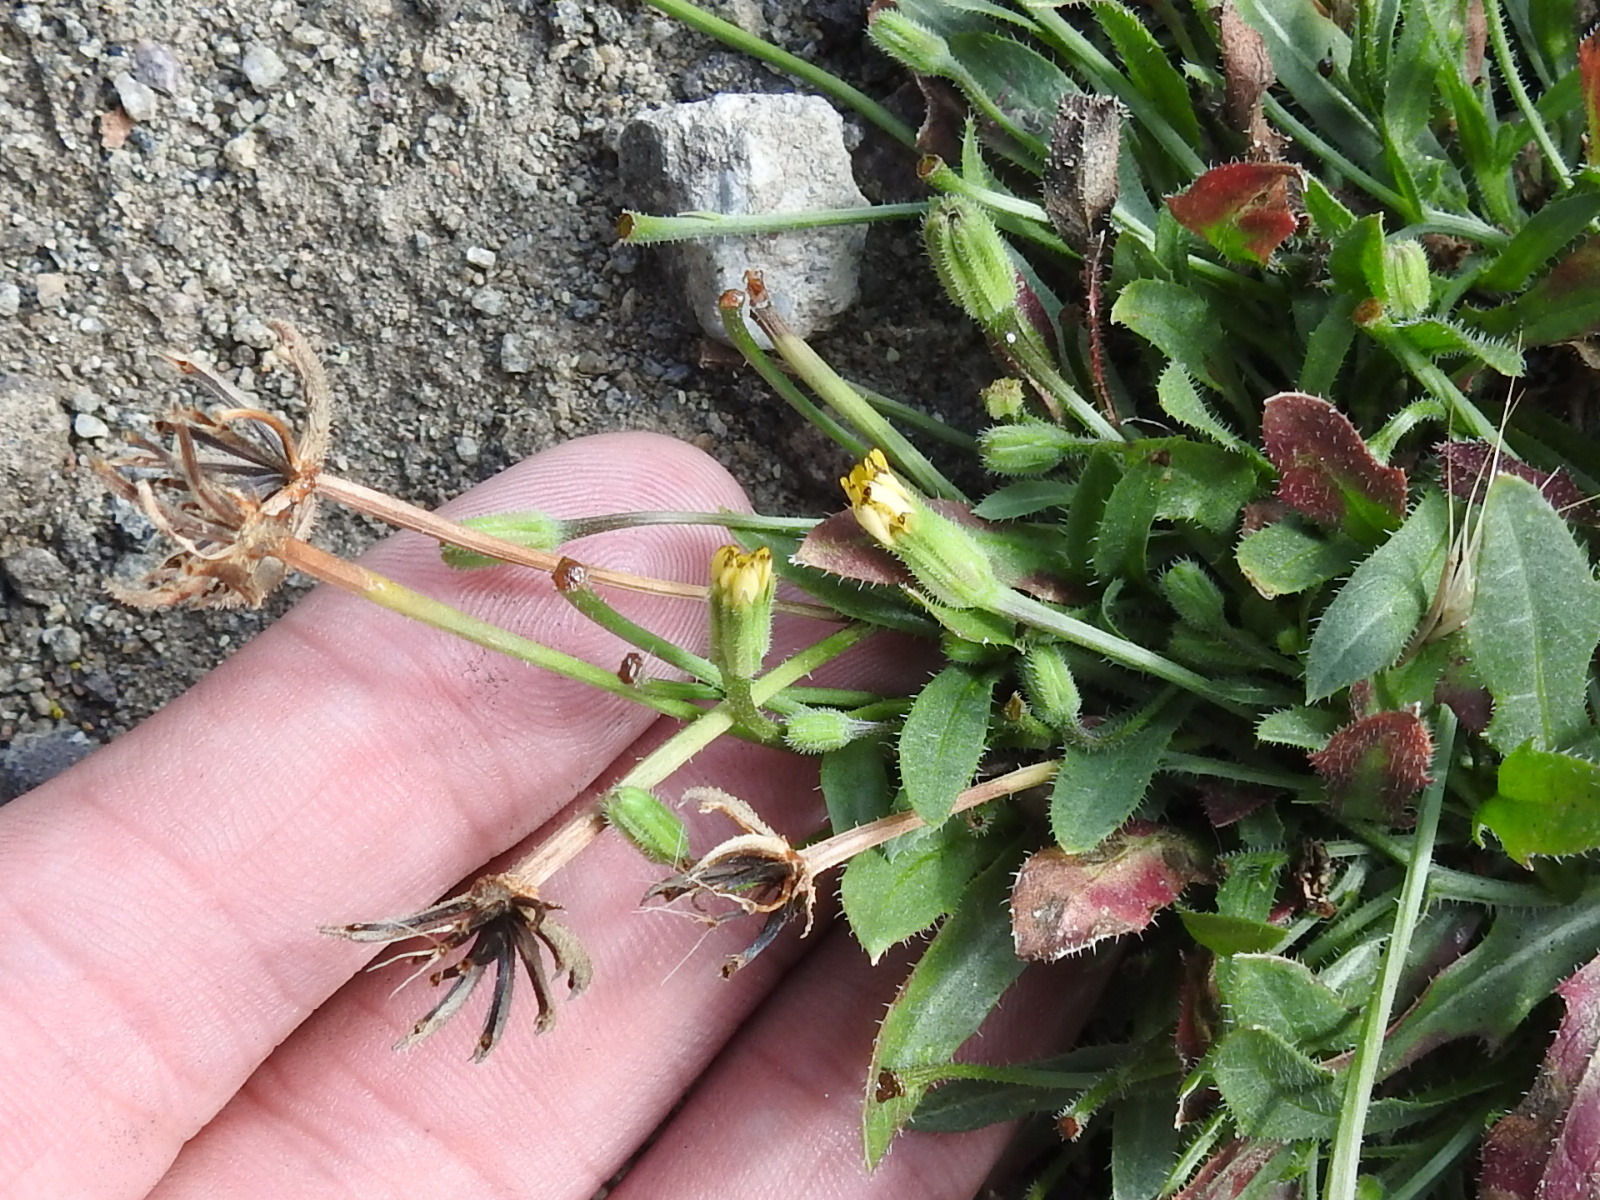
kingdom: Plantae
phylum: Tracheophyta
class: Magnoliopsida
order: Asterales
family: Asteraceae
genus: Hedypnois
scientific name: Hedypnois rhagadioloides
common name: Cretan weed
